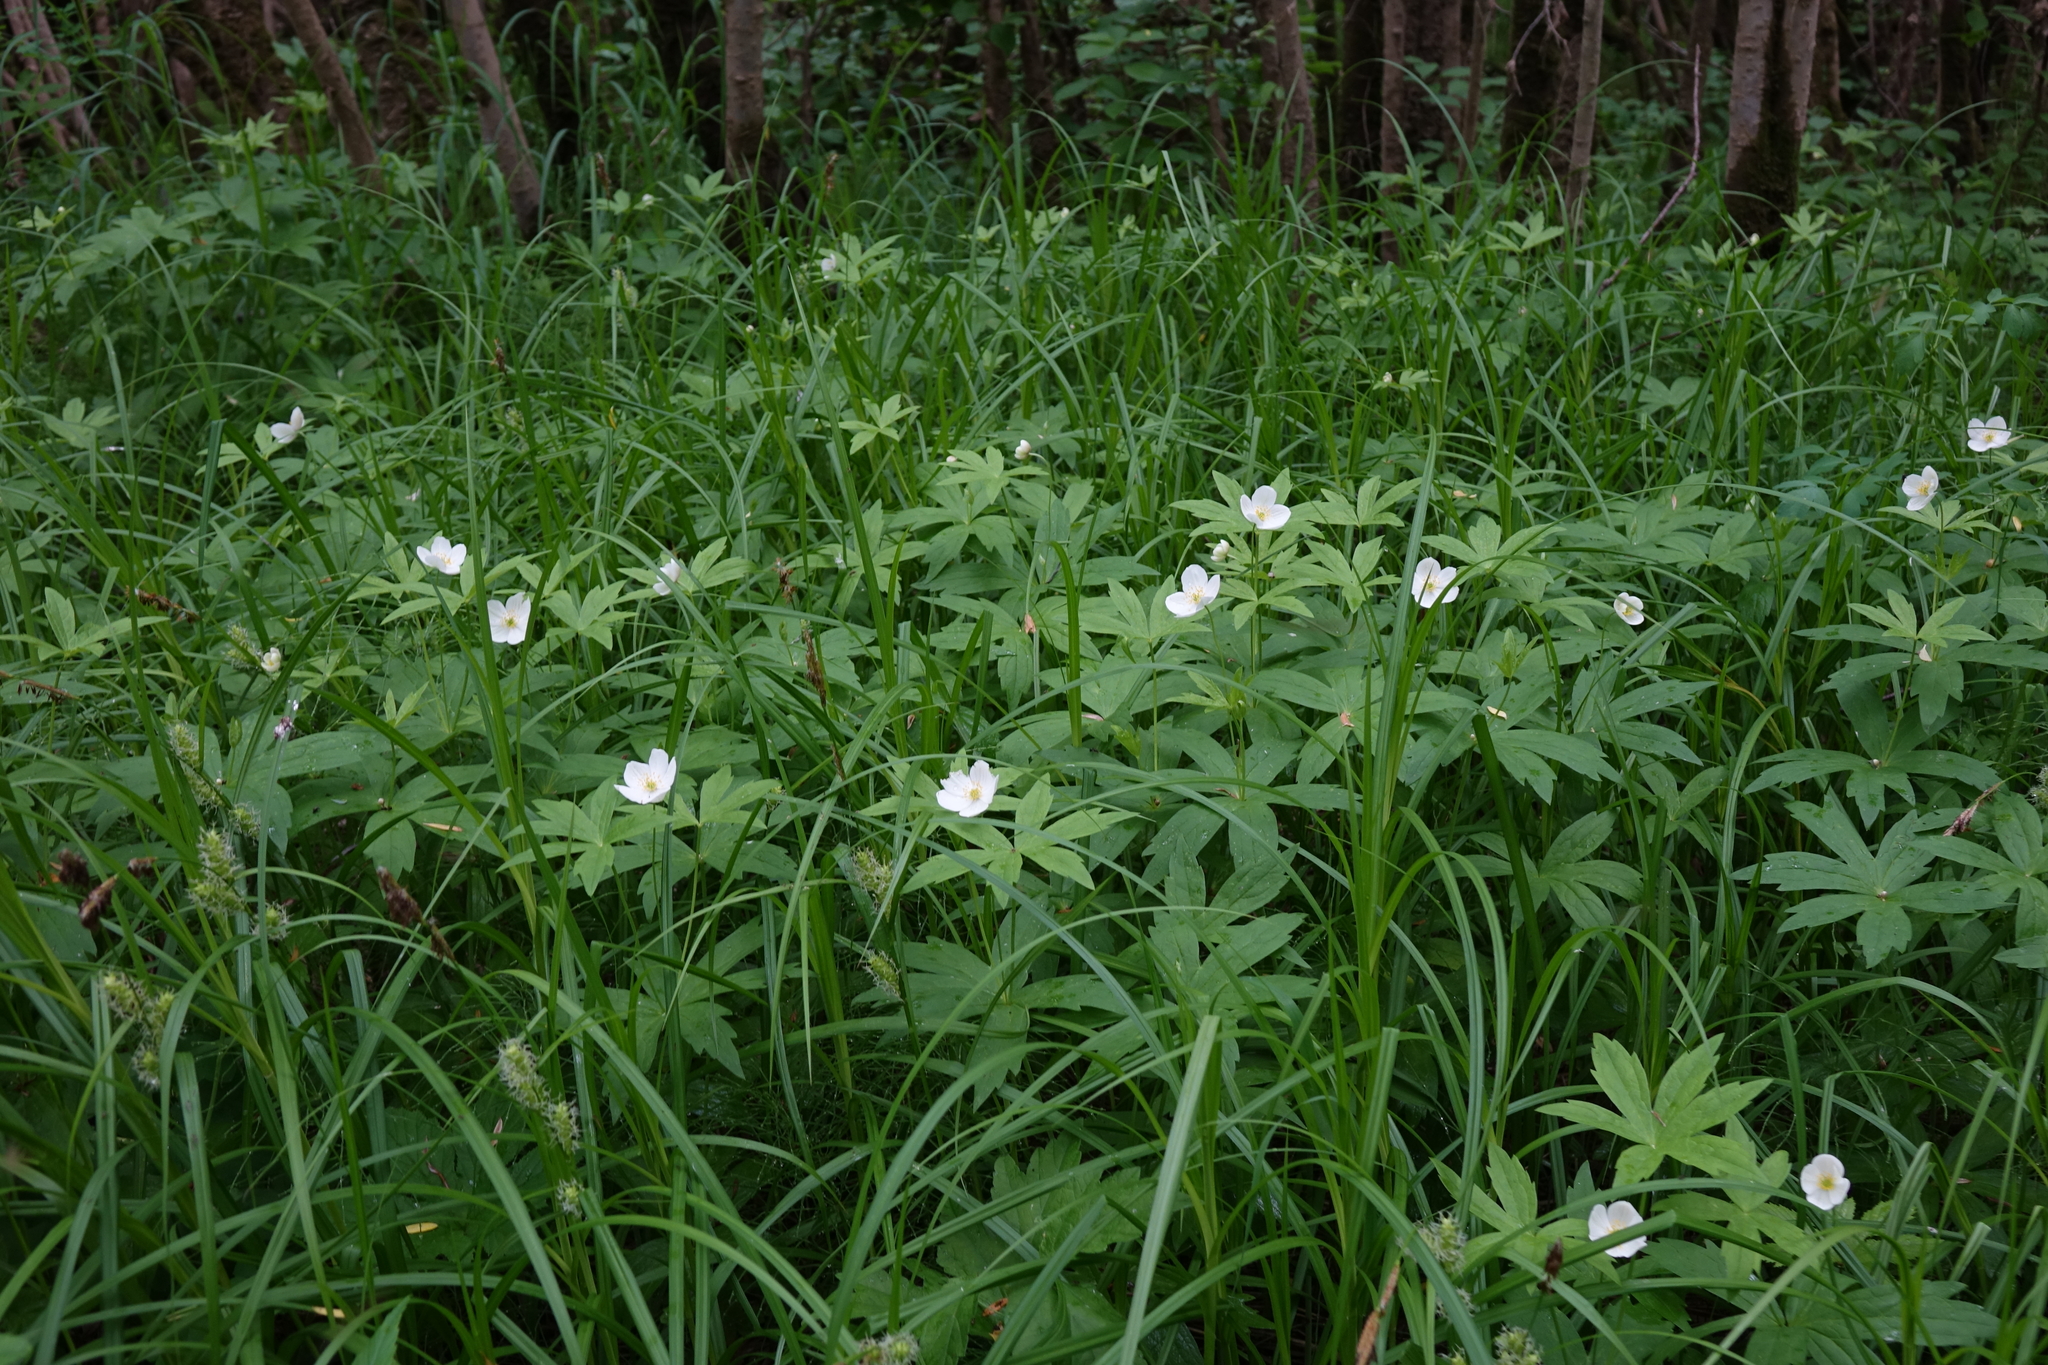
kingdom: Plantae
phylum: Tracheophyta
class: Magnoliopsida
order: Ranunculales
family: Ranunculaceae
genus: Anemonastrum
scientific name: Anemonastrum dichotomum
